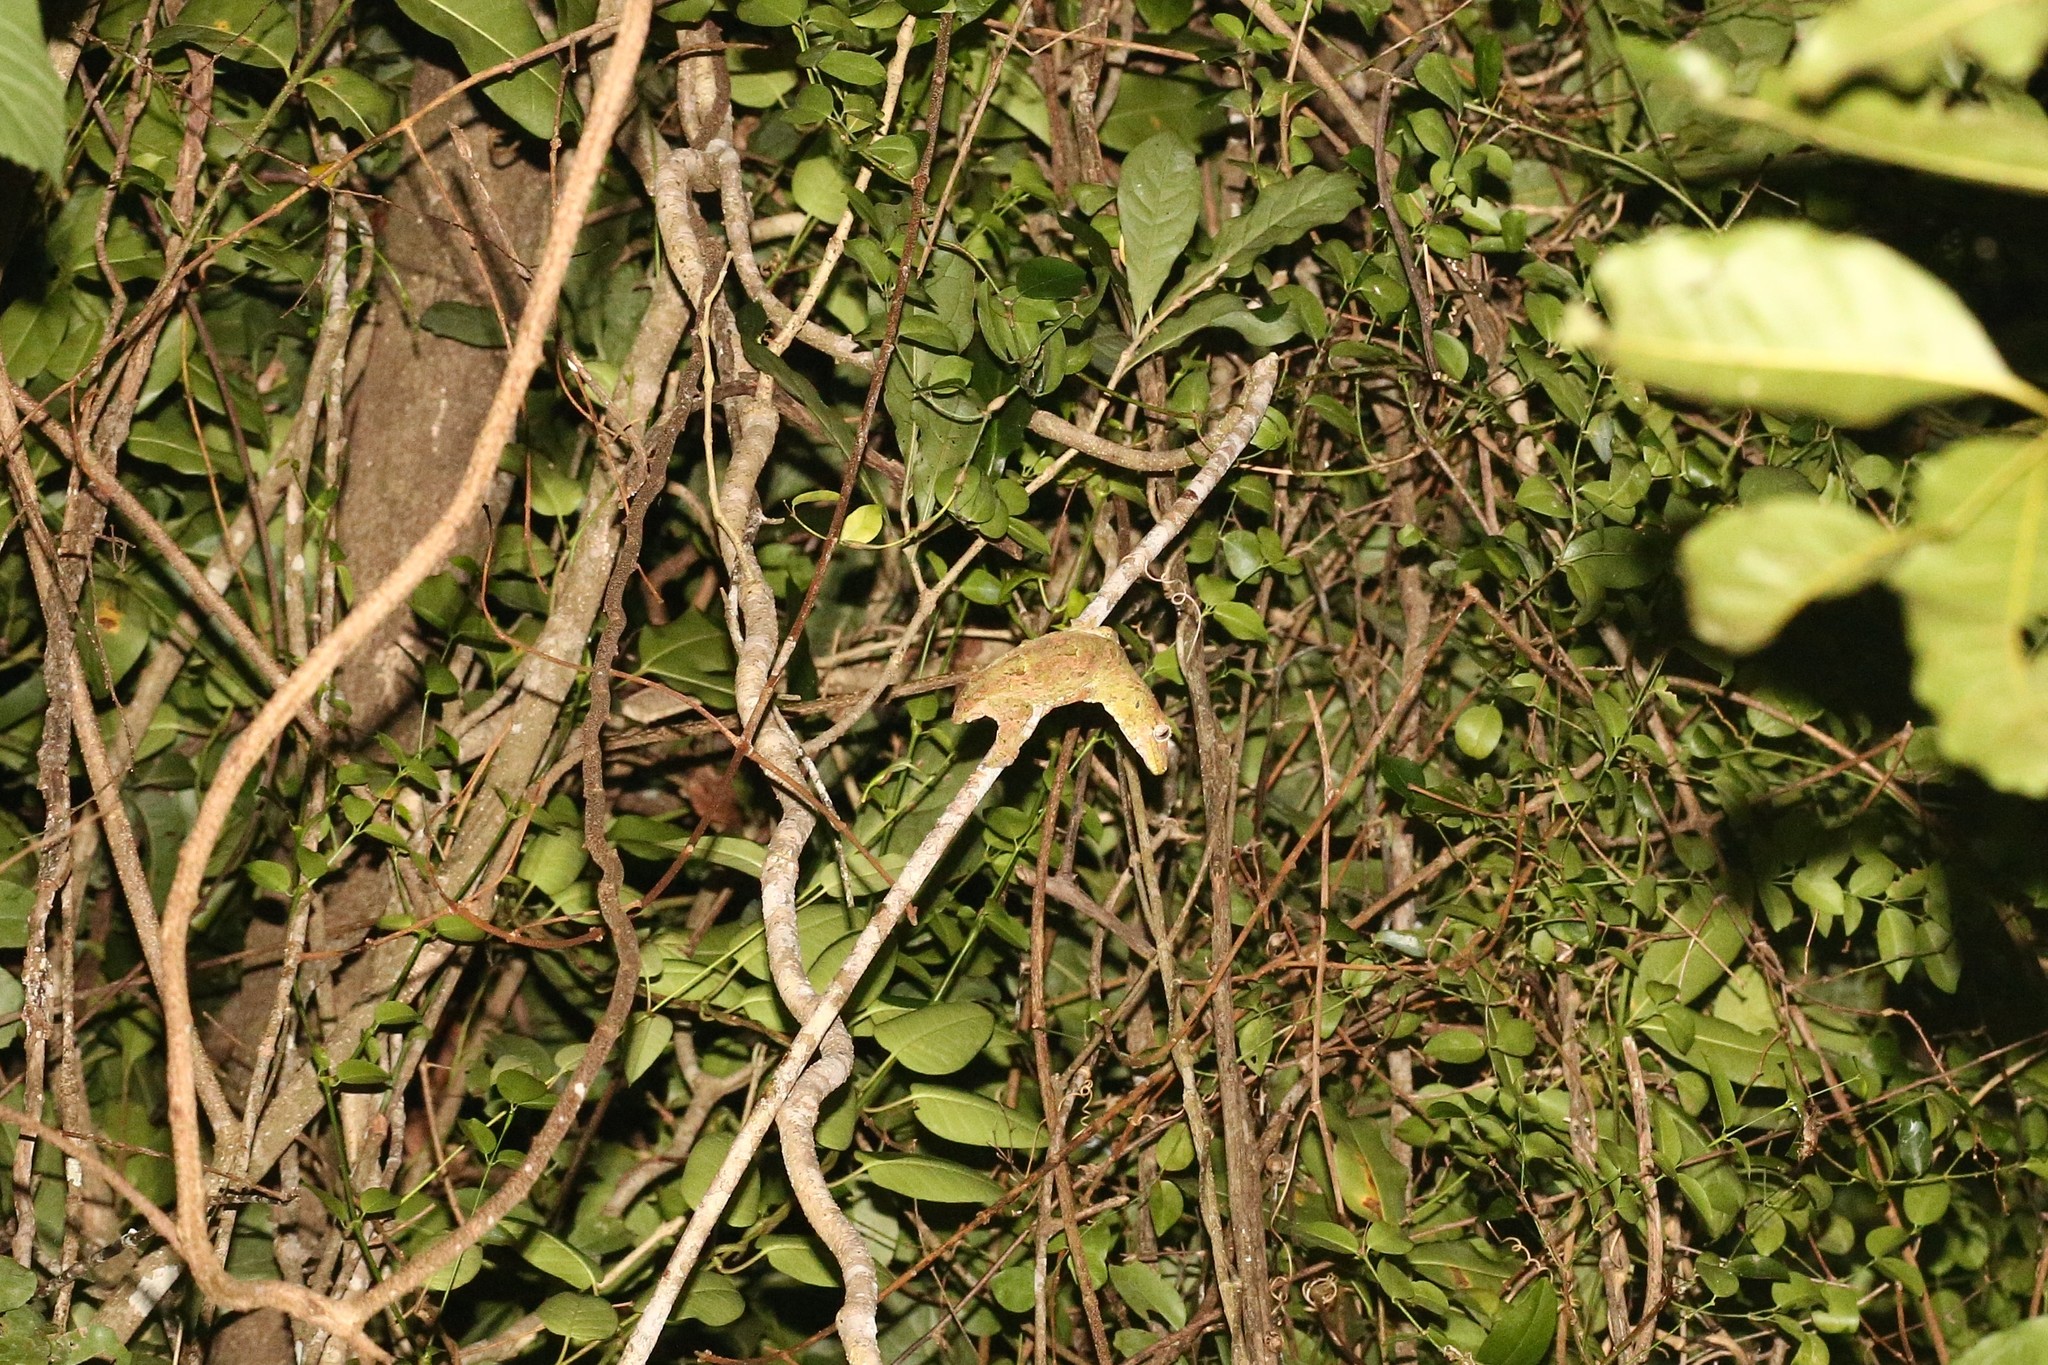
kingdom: Animalia
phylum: Chordata
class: Squamata
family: Diplodactylidae
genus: Mniarogekko
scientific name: Mniarogekko chahoua
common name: Bavay's giant gecko
